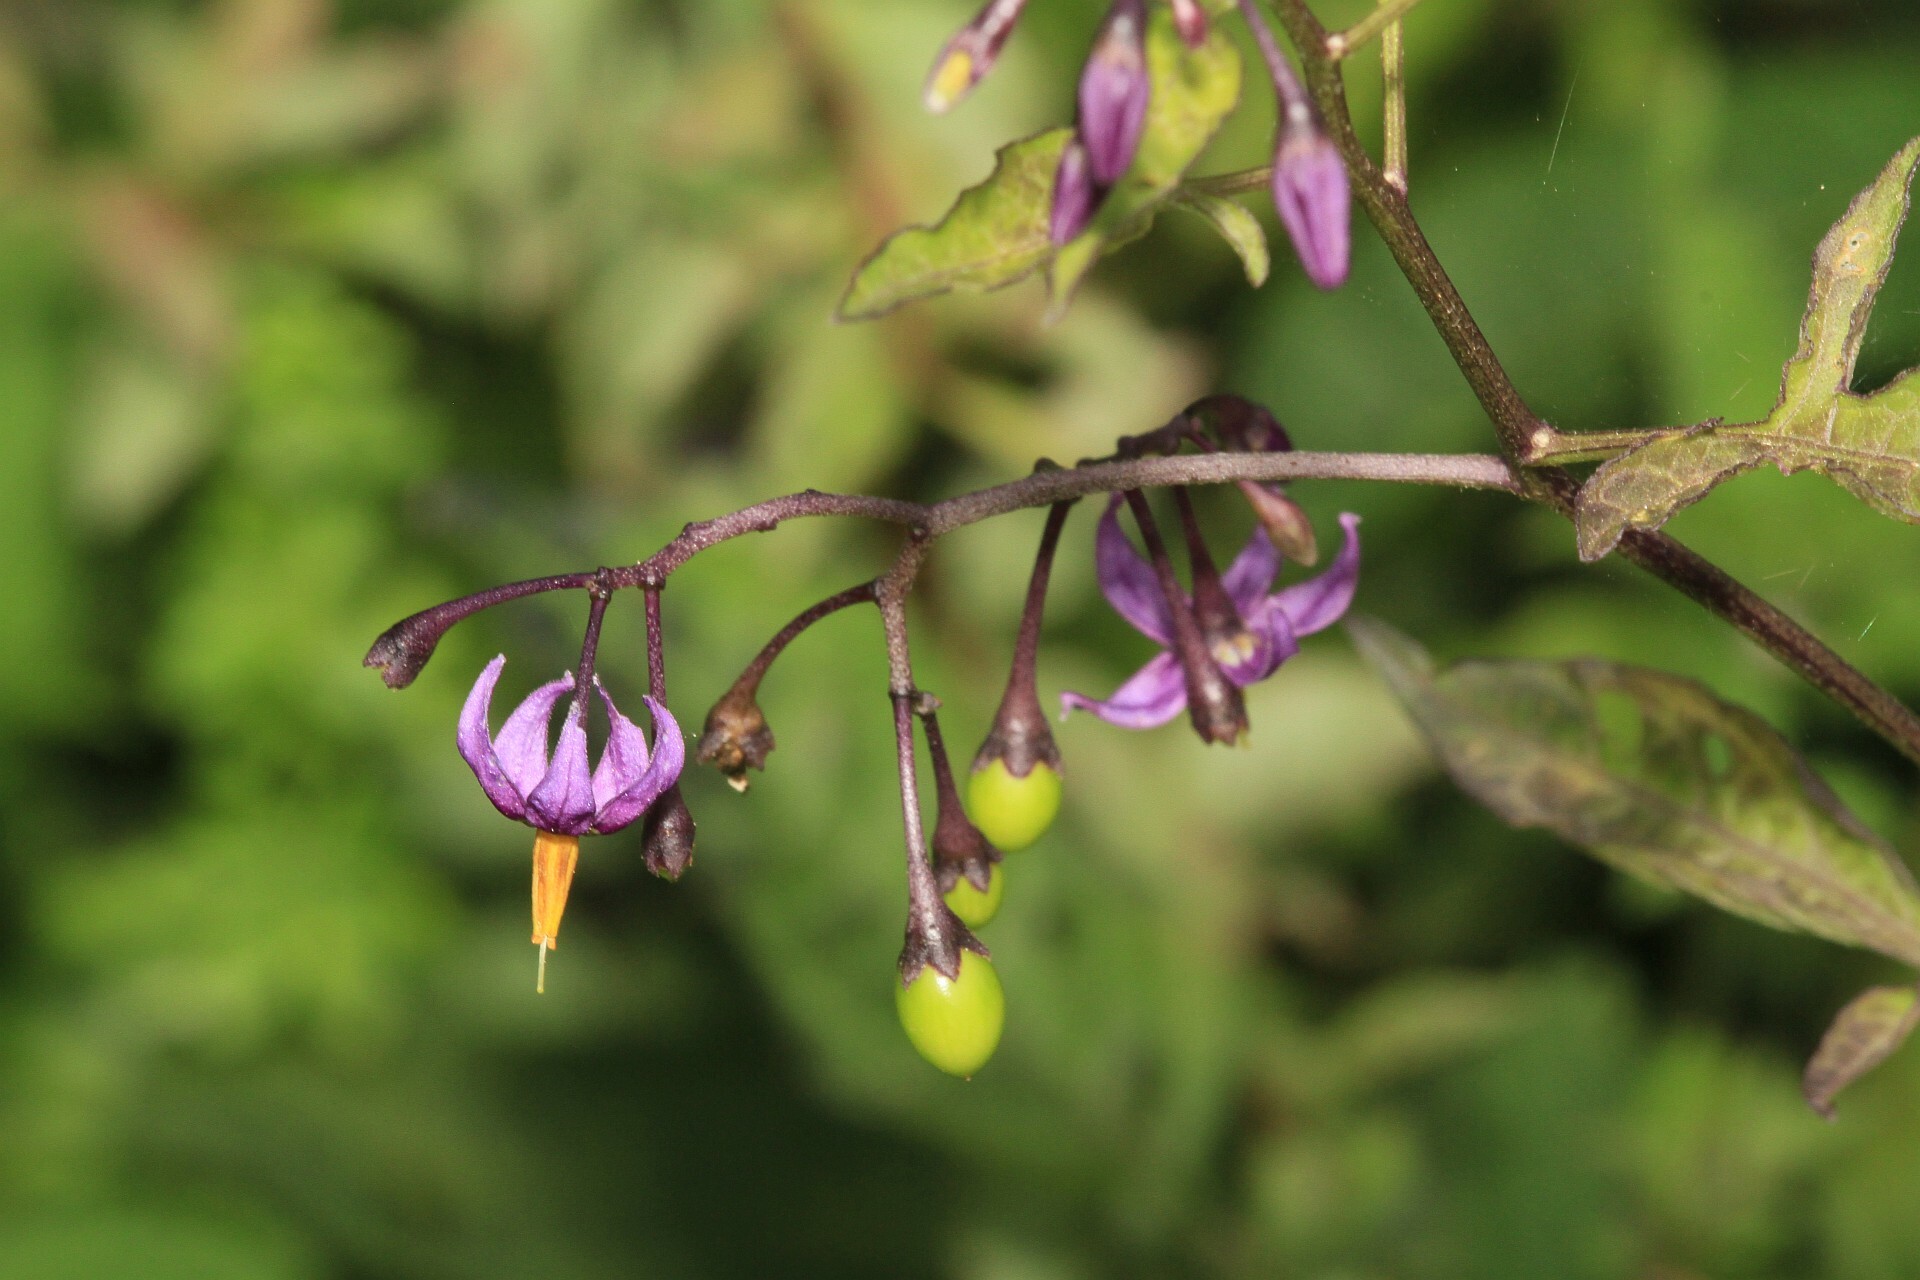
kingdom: Plantae
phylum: Tracheophyta
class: Magnoliopsida
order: Solanales
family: Solanaceae
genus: Solanum
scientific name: Solanum dulcamara
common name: Climbing nightshade
